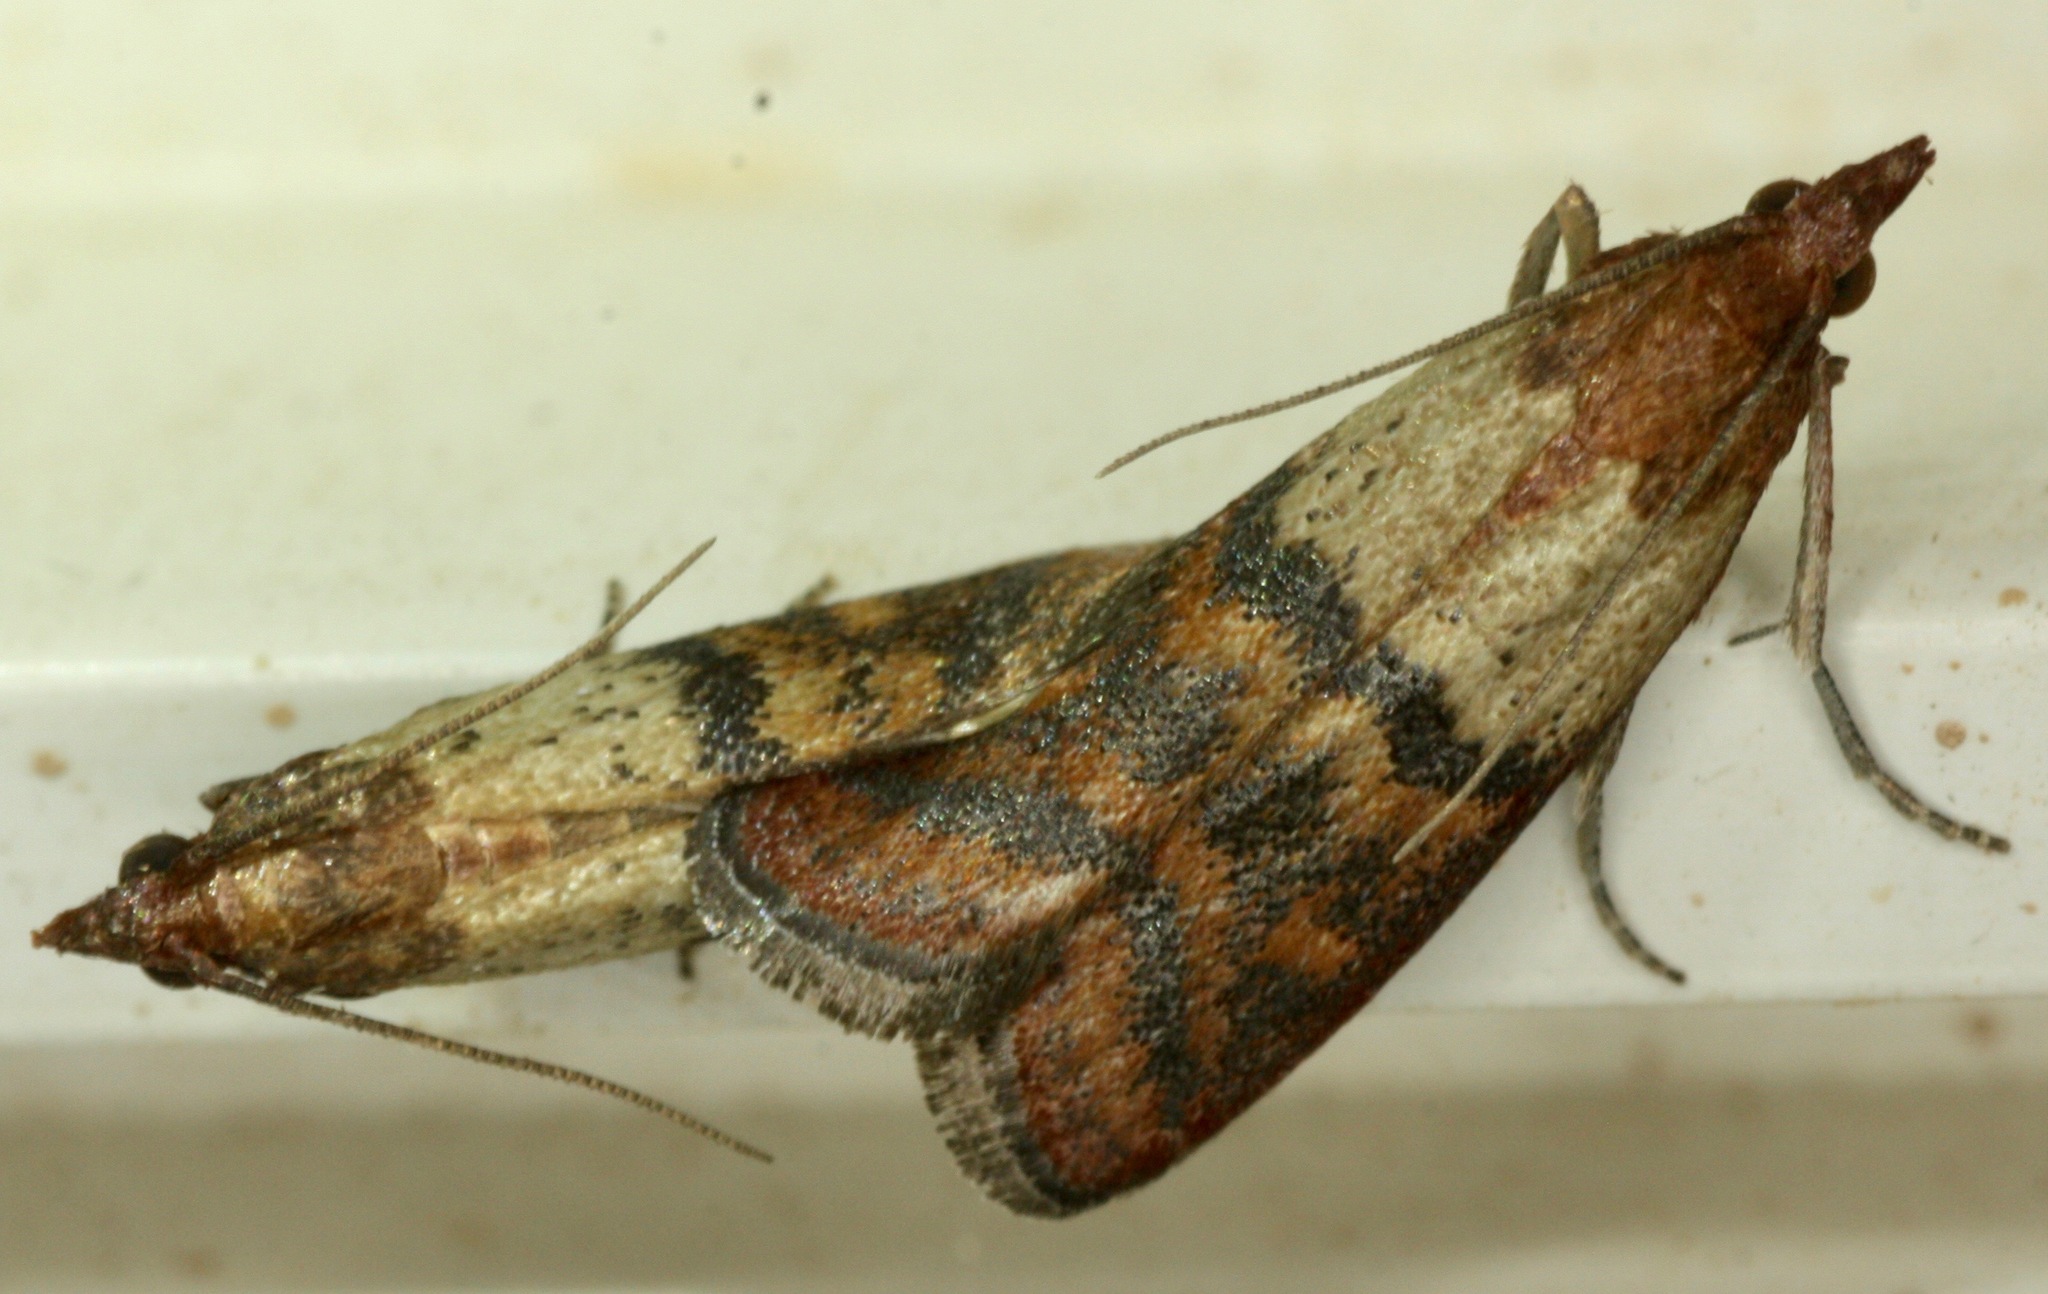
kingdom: Animalia
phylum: Arthropoda
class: Insecta
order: Lepidoptera
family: Pyralidae
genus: Plodia
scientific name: Plodia interpunctella
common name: Indian meal moth
